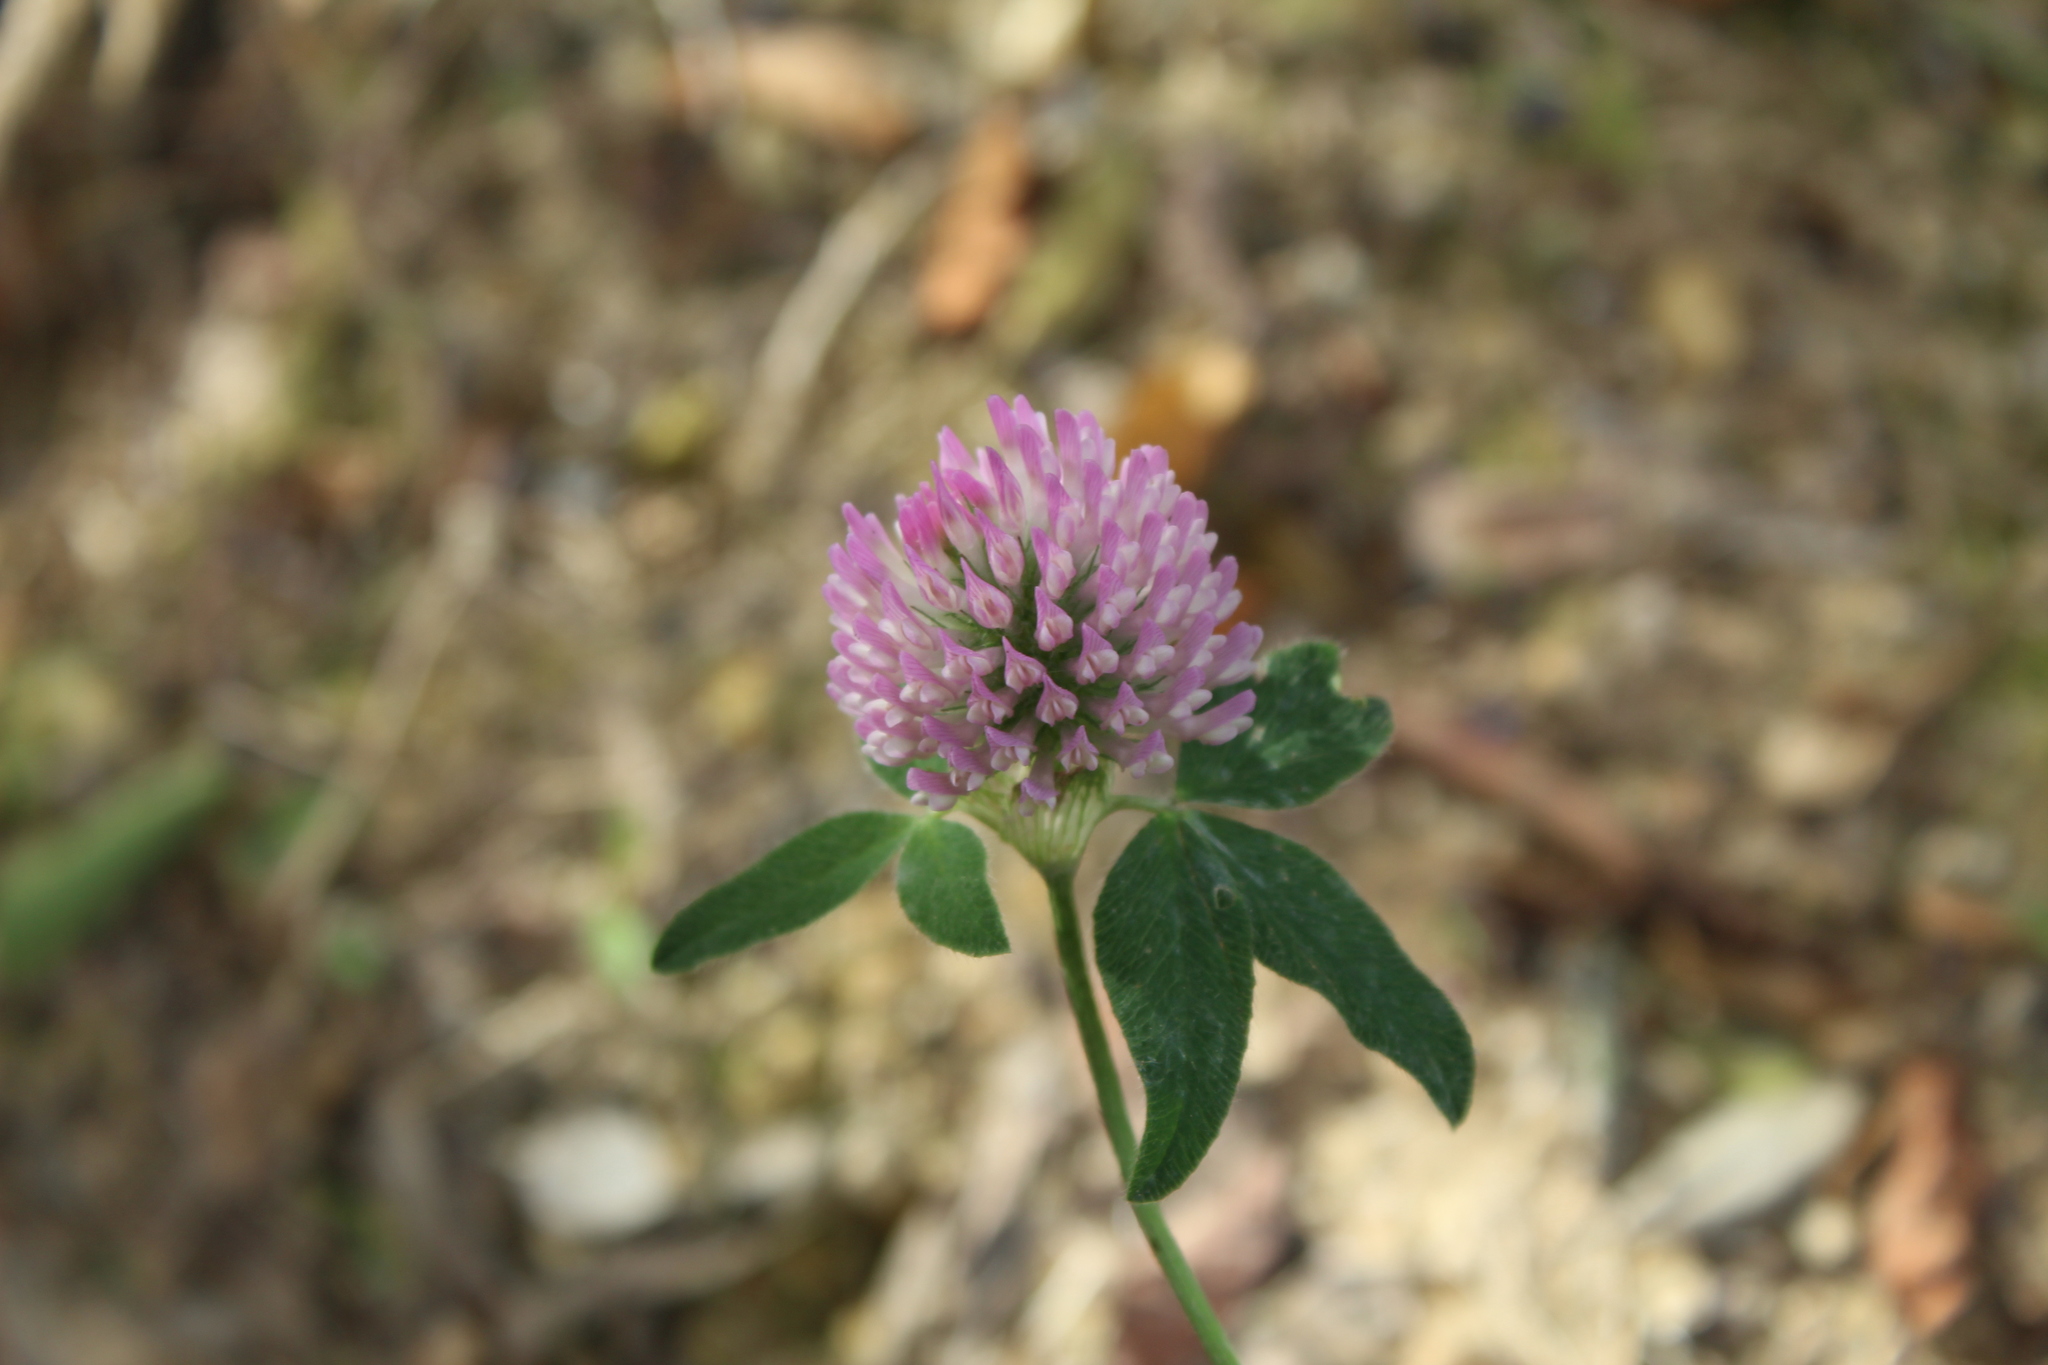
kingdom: Plantae
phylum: Tracheophyta
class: Magnoliopsida
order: Fabales
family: Fabaceae
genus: Trifolium
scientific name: Trifolium pratense
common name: Red clover
